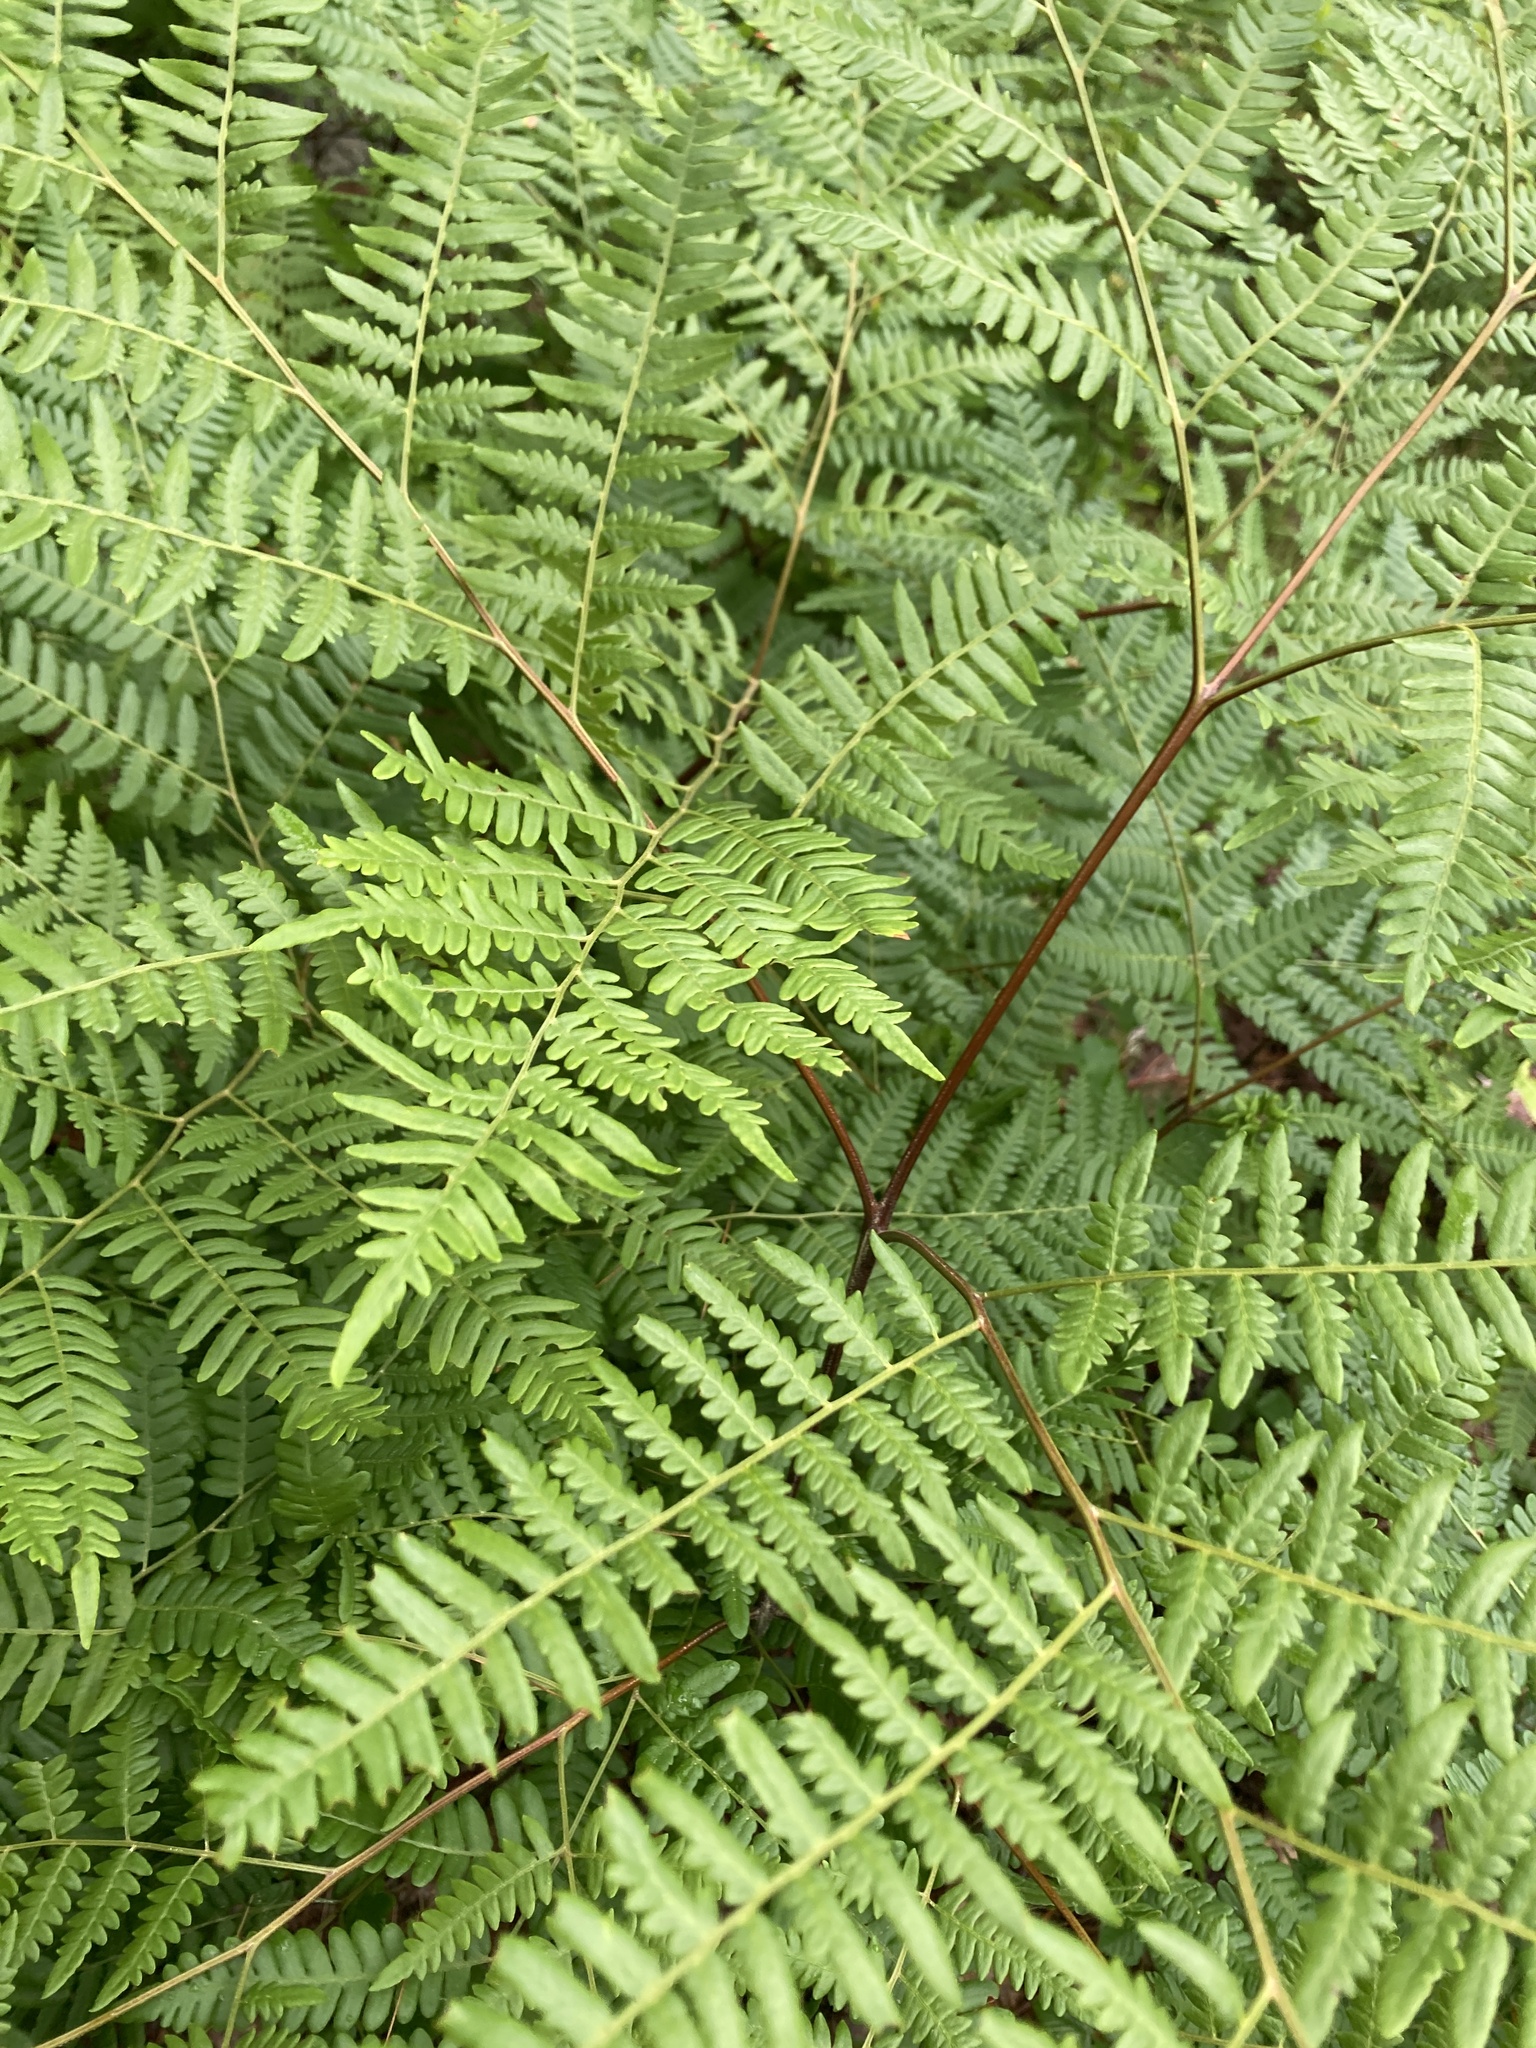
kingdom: Plantae
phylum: Tracheophyta
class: Polypodiopsida
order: Polypodiales
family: Dennstaedtiaceae
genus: Pteridium
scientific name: Pteridium aquilinum
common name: Bracken
